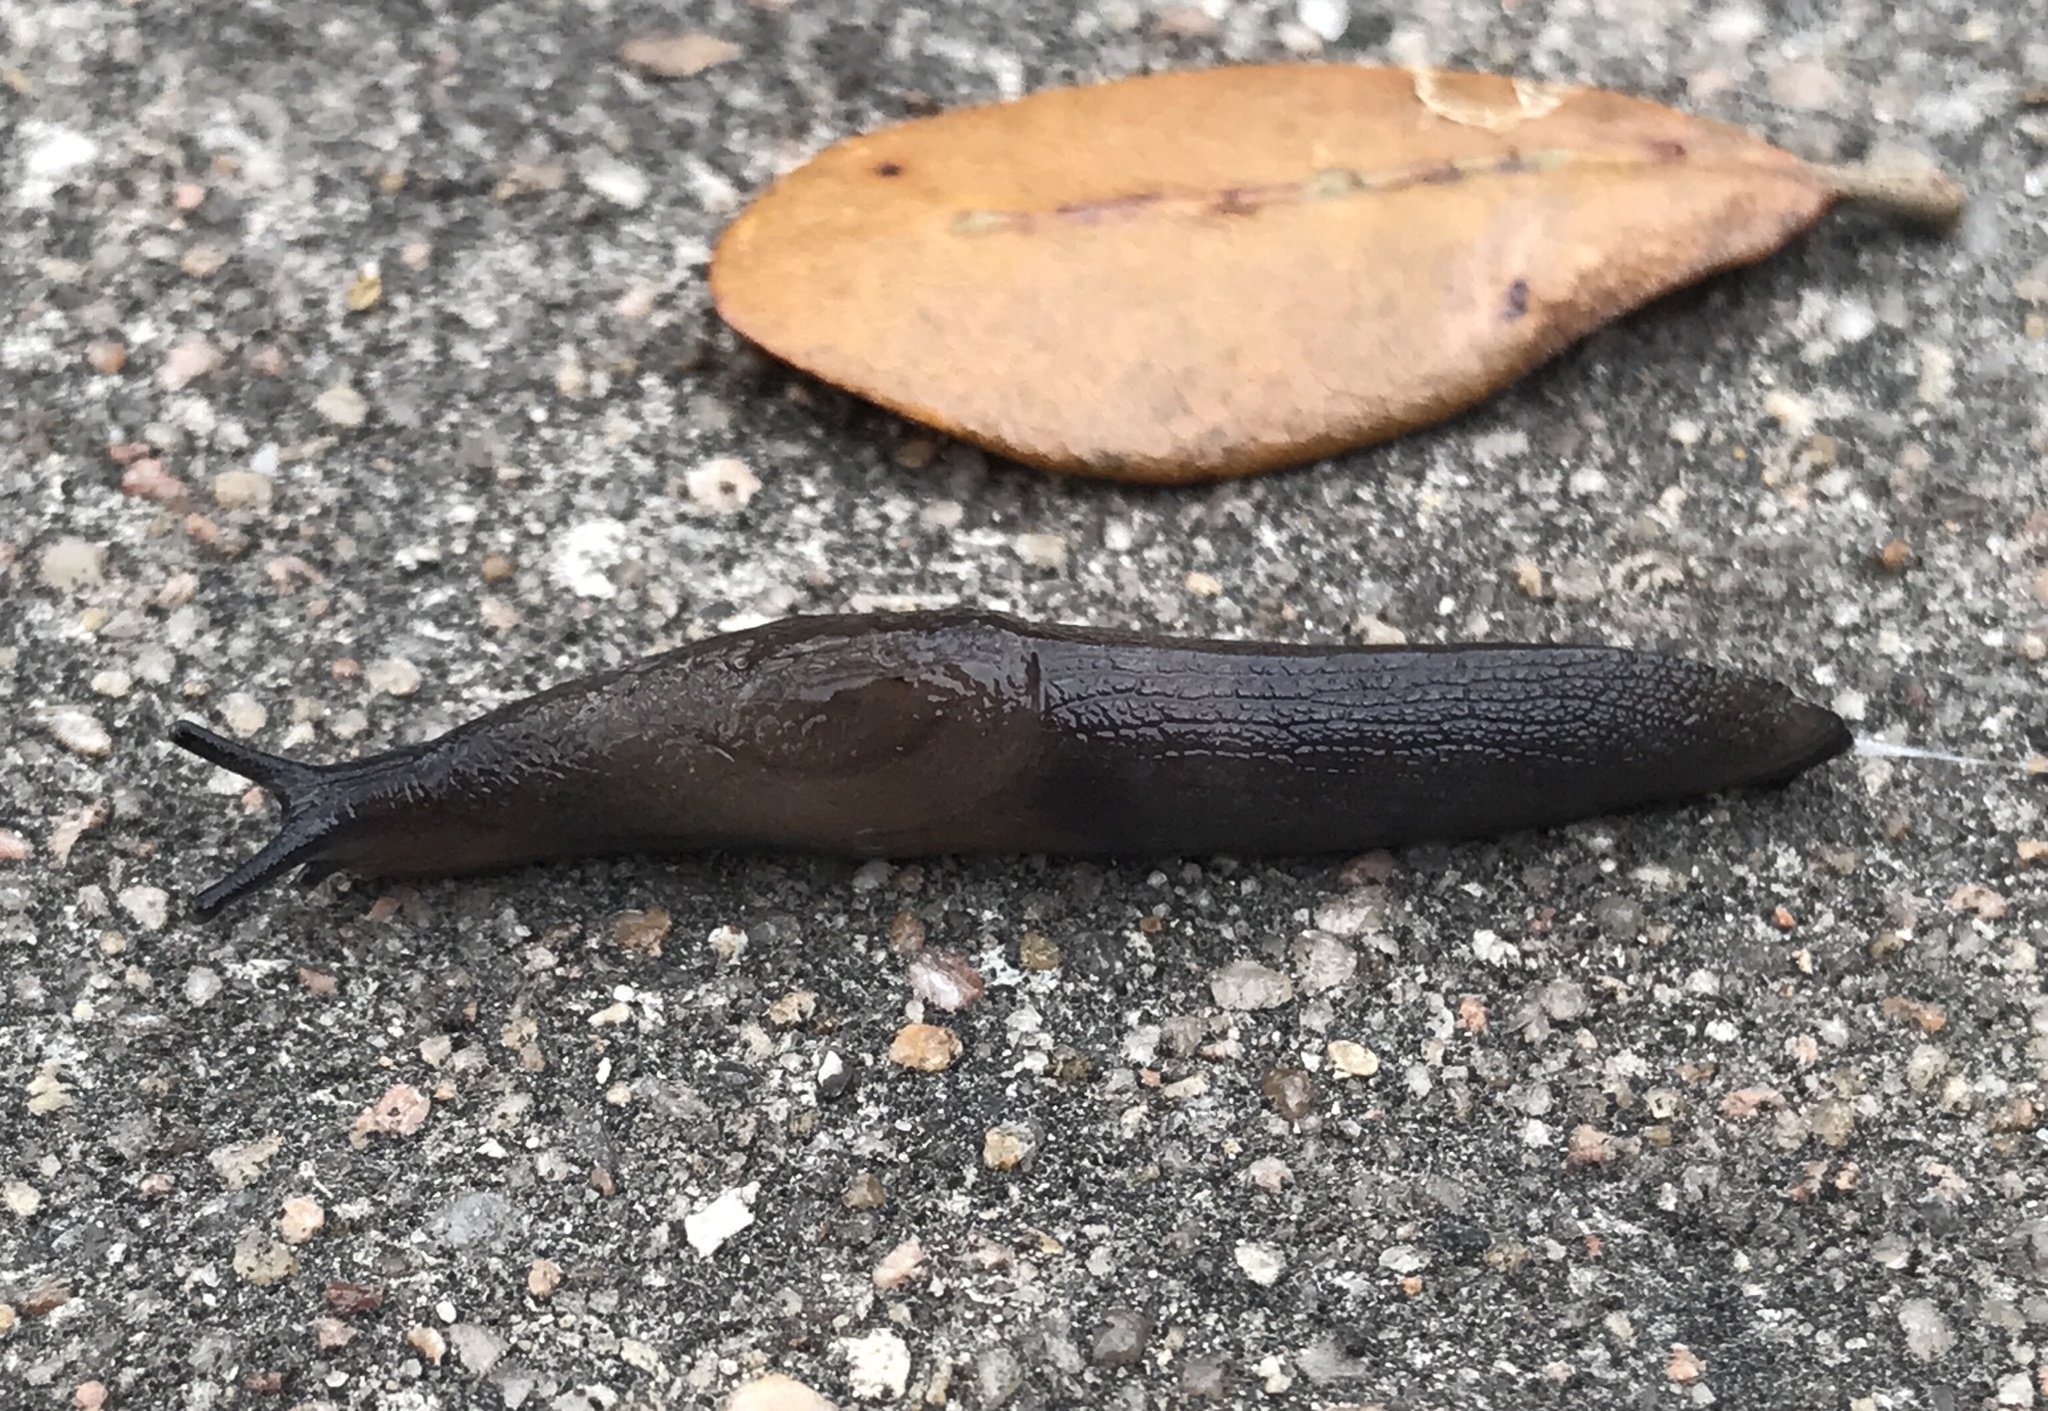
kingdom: Animalia
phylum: Mollusca
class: Gastropoda
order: Stylommatophora
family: Milacidae
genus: Milax
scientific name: Milax gagates
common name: Greenhouse slug
